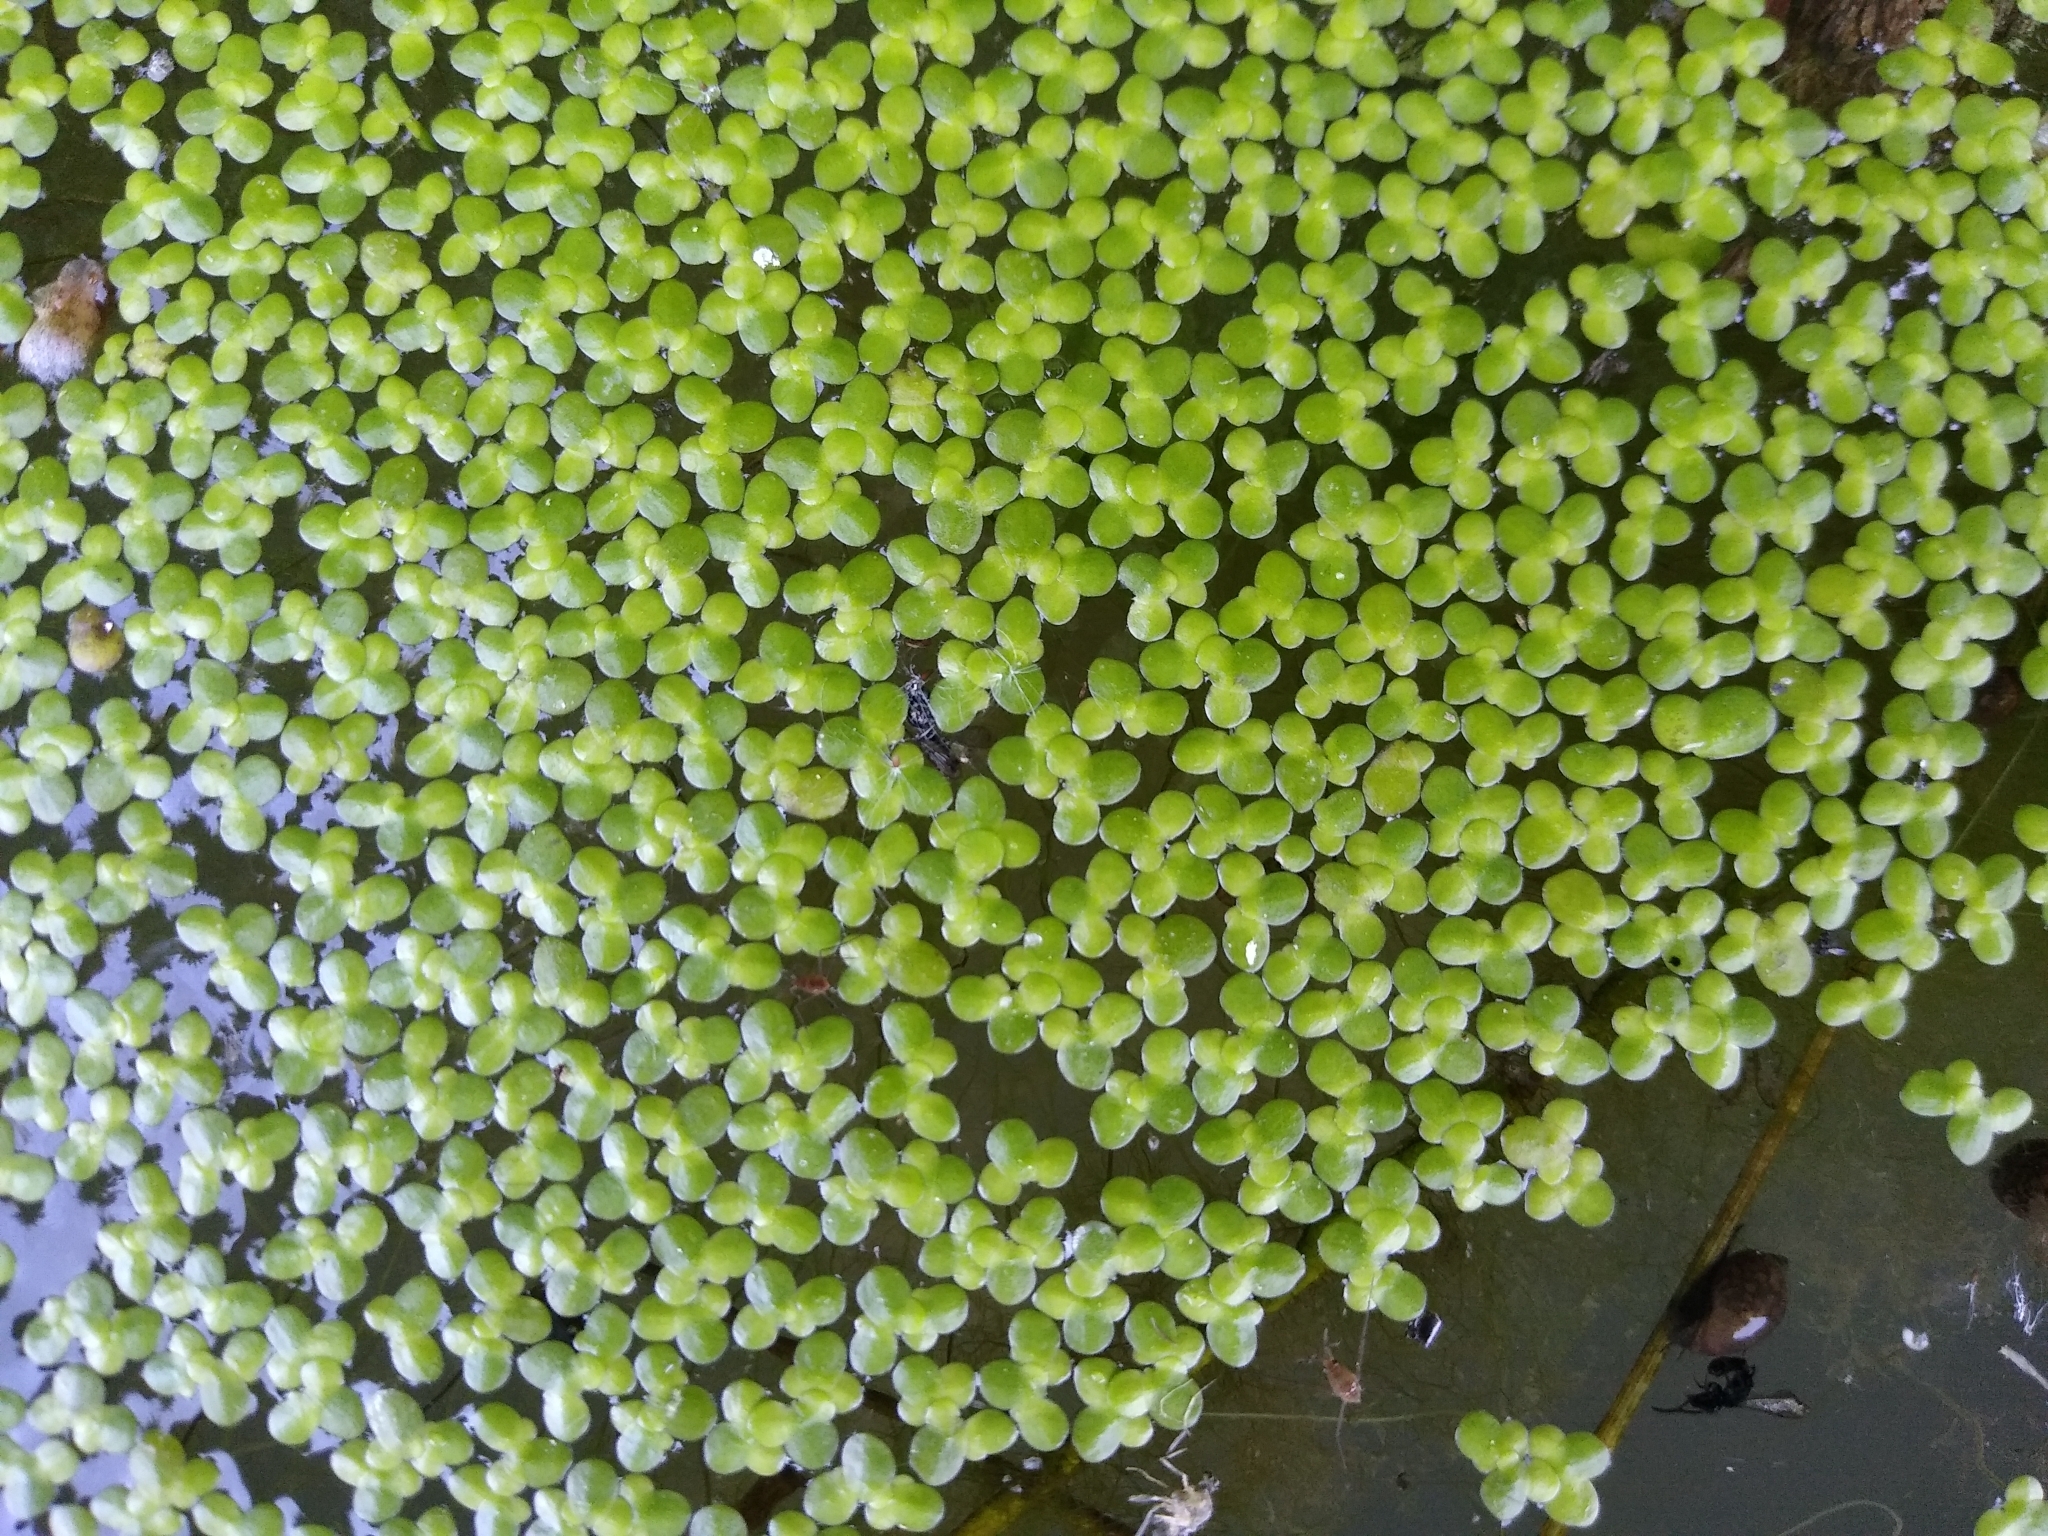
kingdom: Plantae
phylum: Tracheophyta
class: Liliopsida
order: Alismatales
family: Araceae
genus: Lemna
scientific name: Lemna minor
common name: Common duckweed
